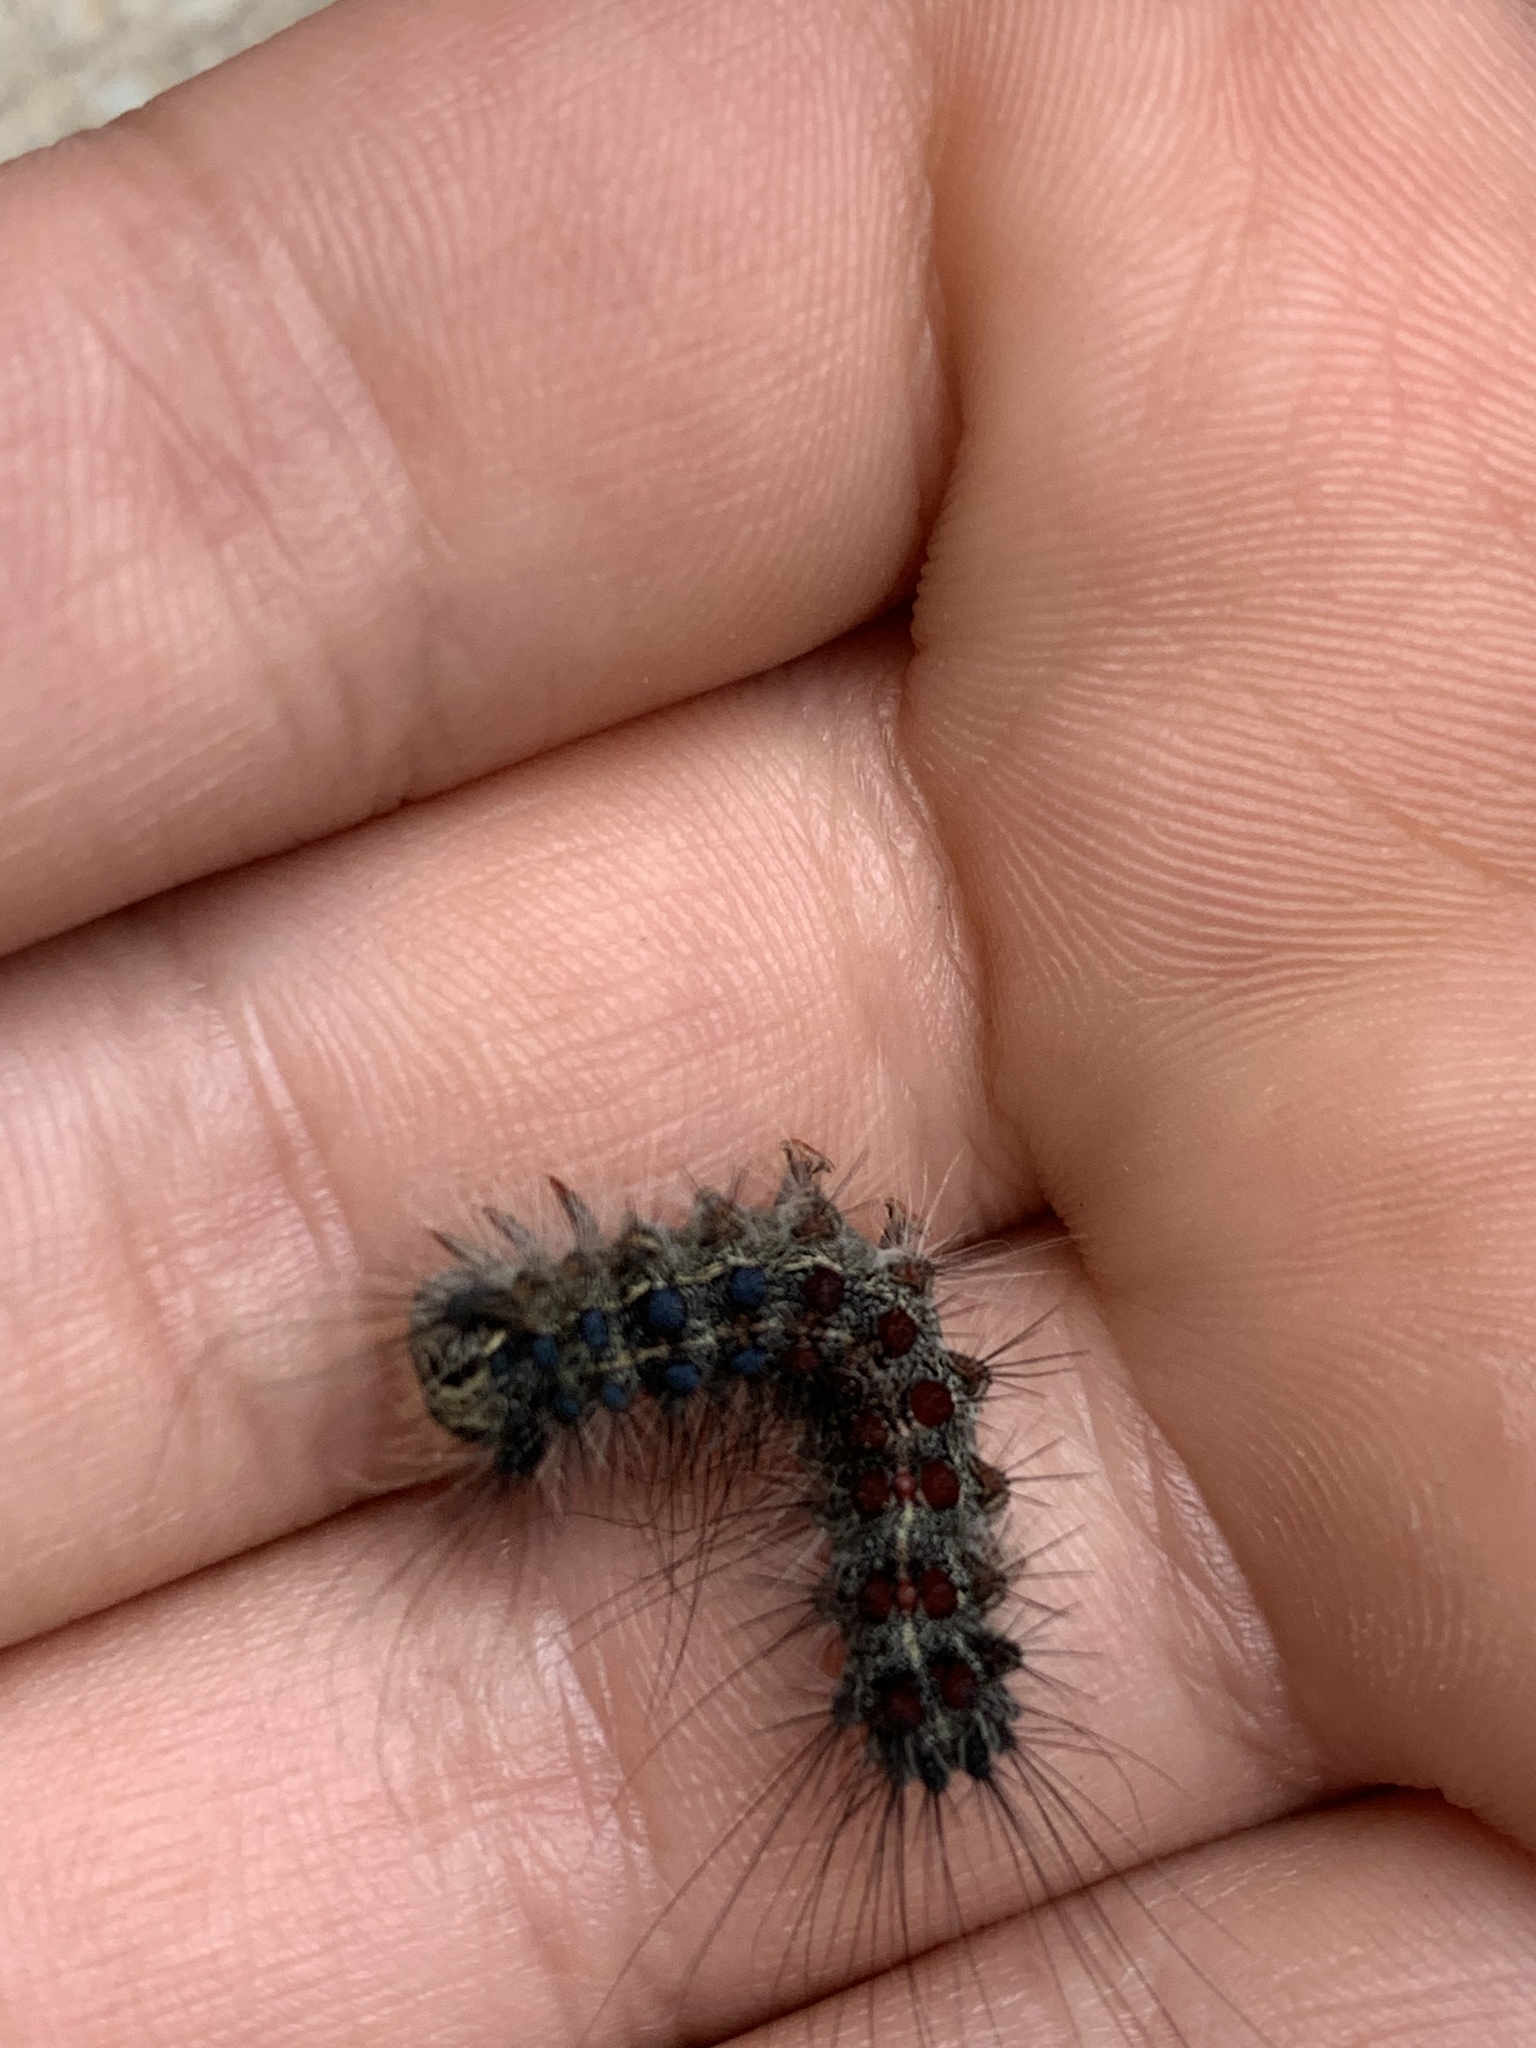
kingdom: Animalia
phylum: Arthropoda
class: Insecta
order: Lepidoptera
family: Erebidae
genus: Lymantria
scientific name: Lymantria dispar
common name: Gypsy moth
